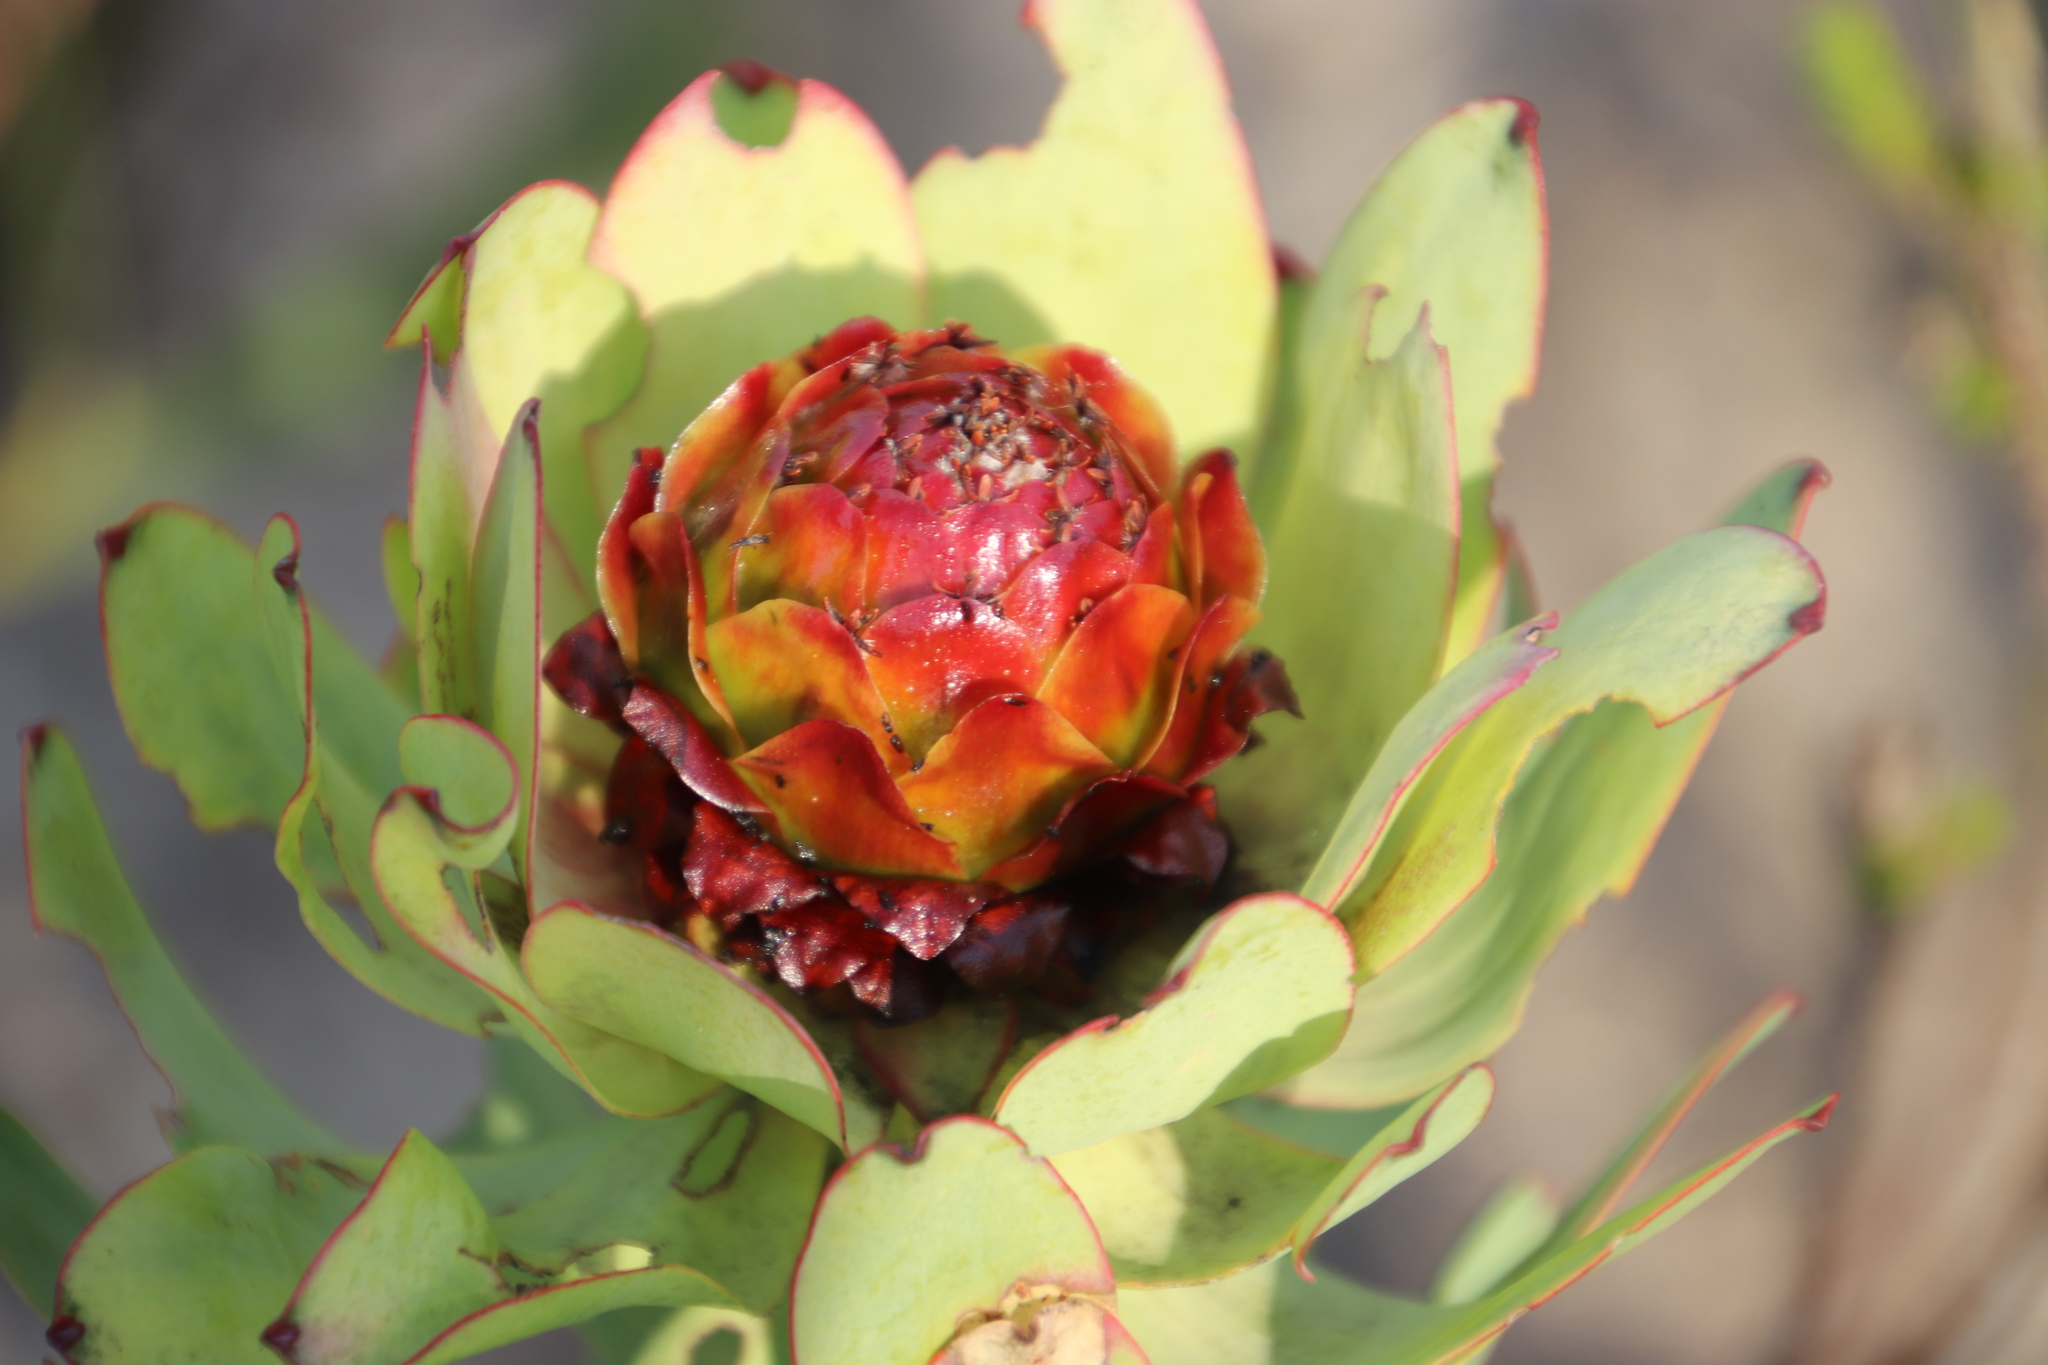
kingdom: Plantae
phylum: Tracheophyta
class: Magnoliopsida
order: Proteales
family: Proteaceae
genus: Leucadendron
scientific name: Leucadendron tinctum
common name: Spicy conebush
